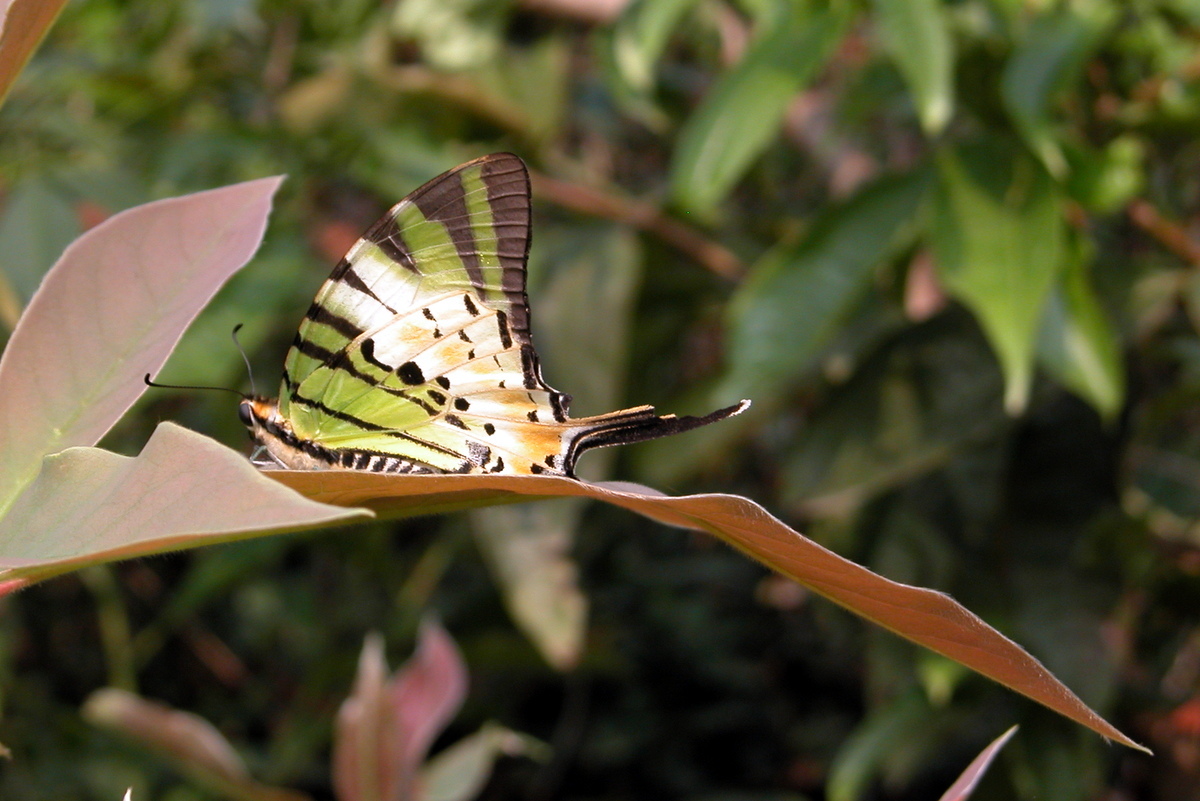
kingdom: Animalia
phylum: Arthropoda
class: Insecta
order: Lepidoptera
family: Papilionidae
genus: Graphium
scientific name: Graphium antiphates
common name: Fivebar swordtail
